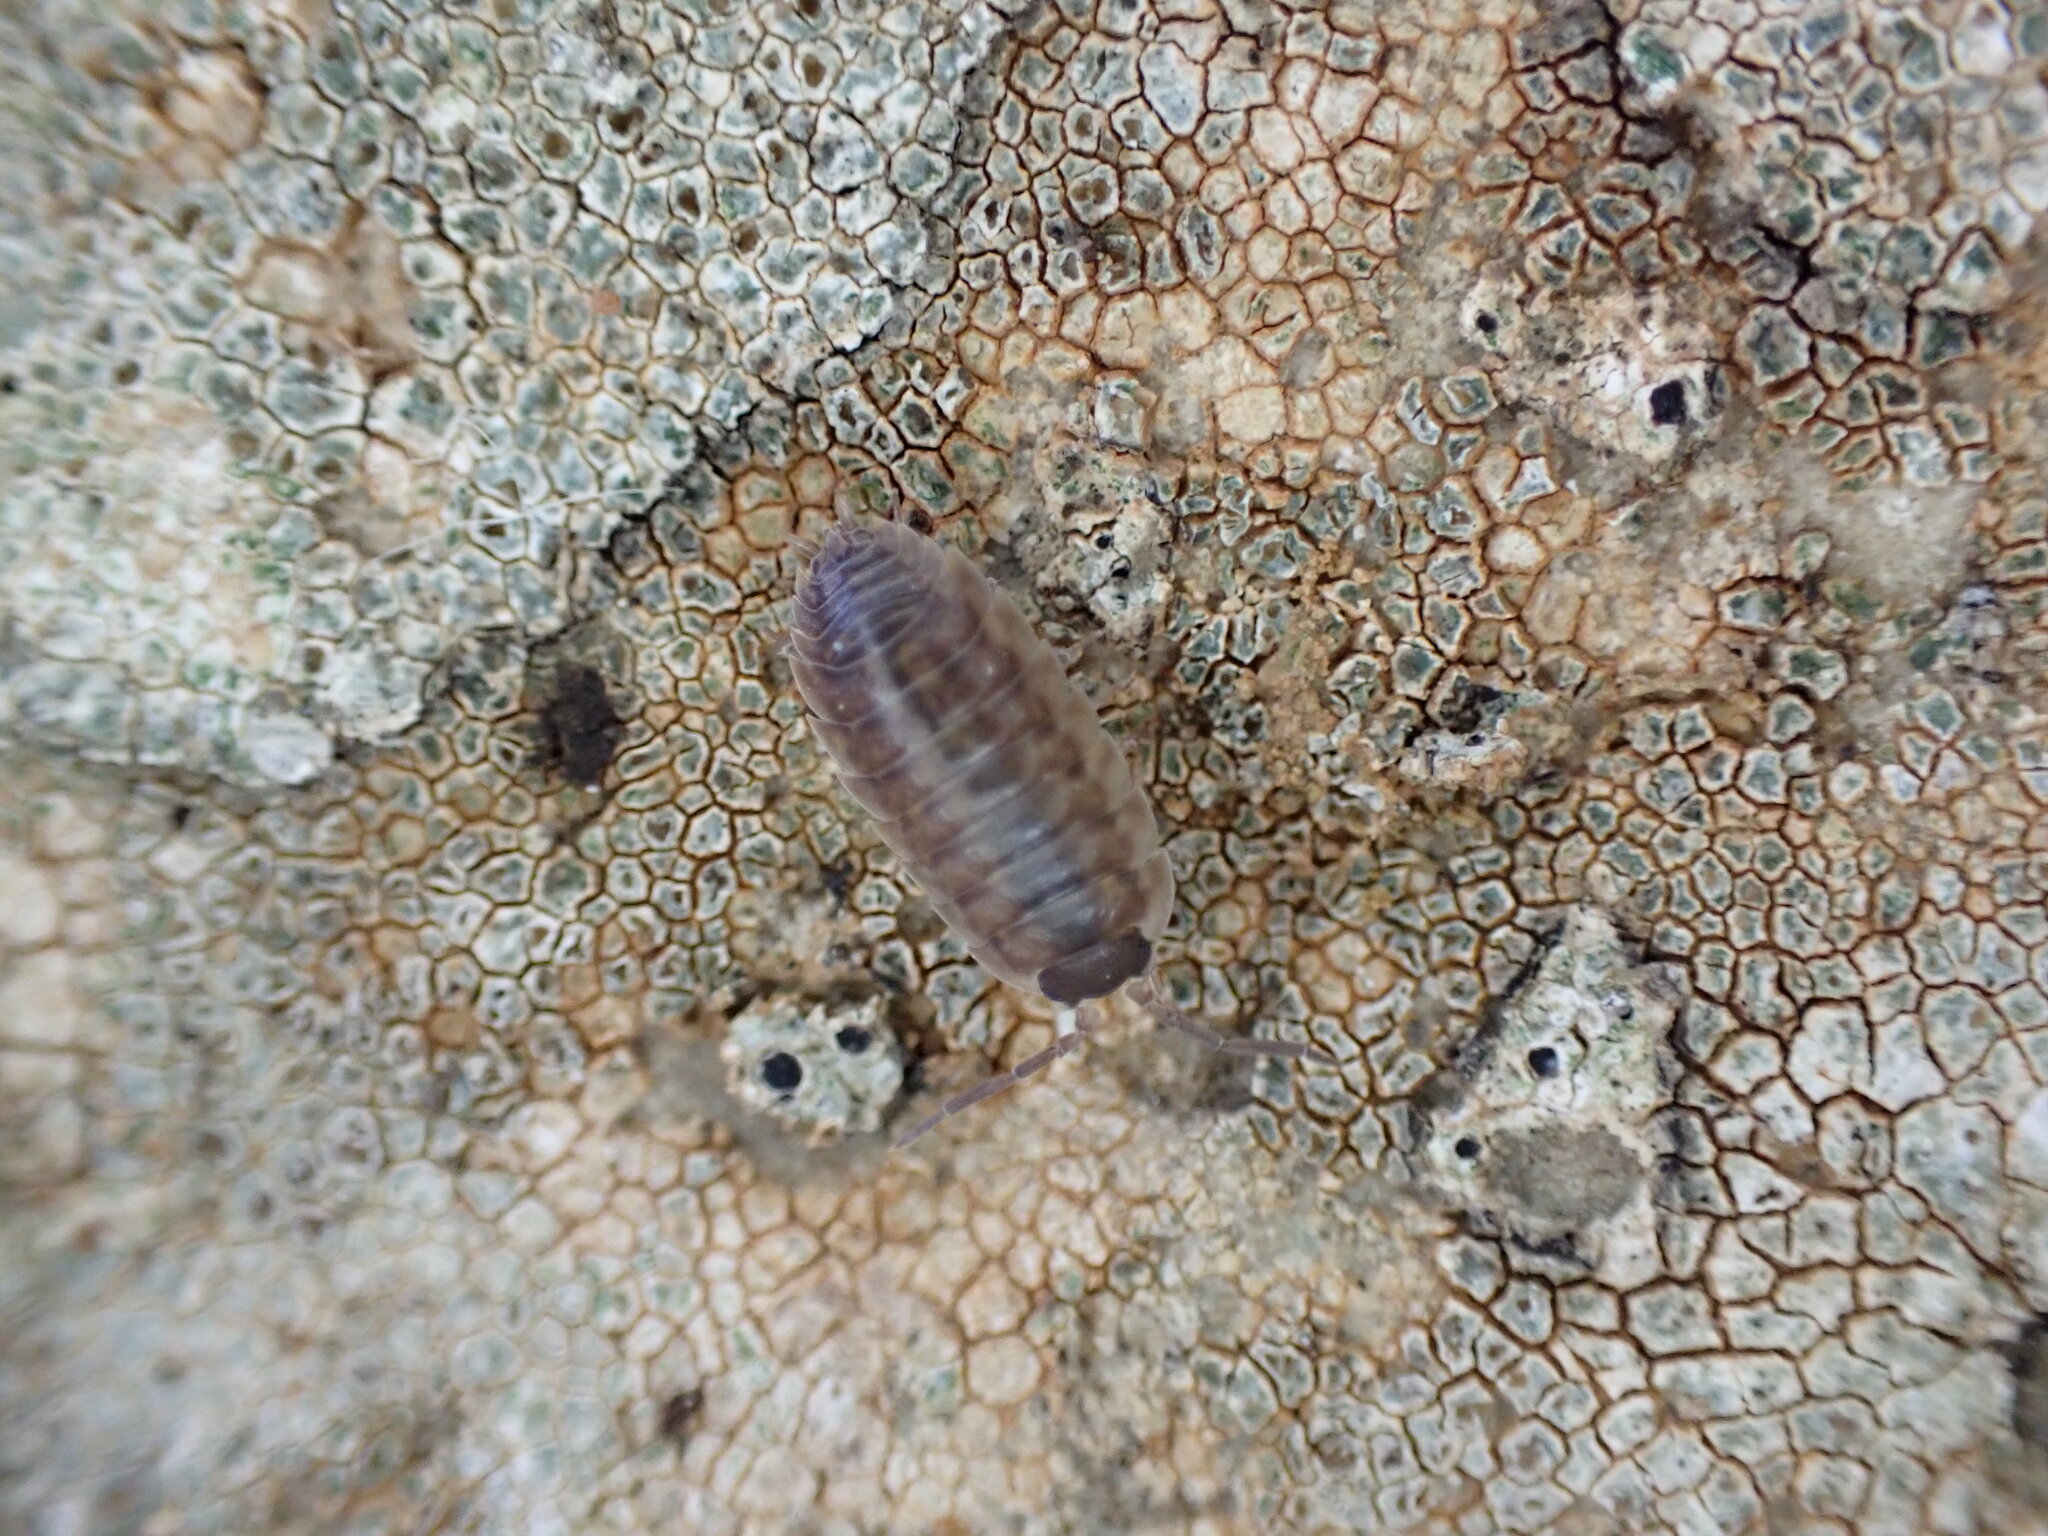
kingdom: Animalia
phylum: Arthropoda
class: Malacostraca
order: Isopoda
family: Porcellionidae
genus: Porcellio
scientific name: Porcellio orarum
